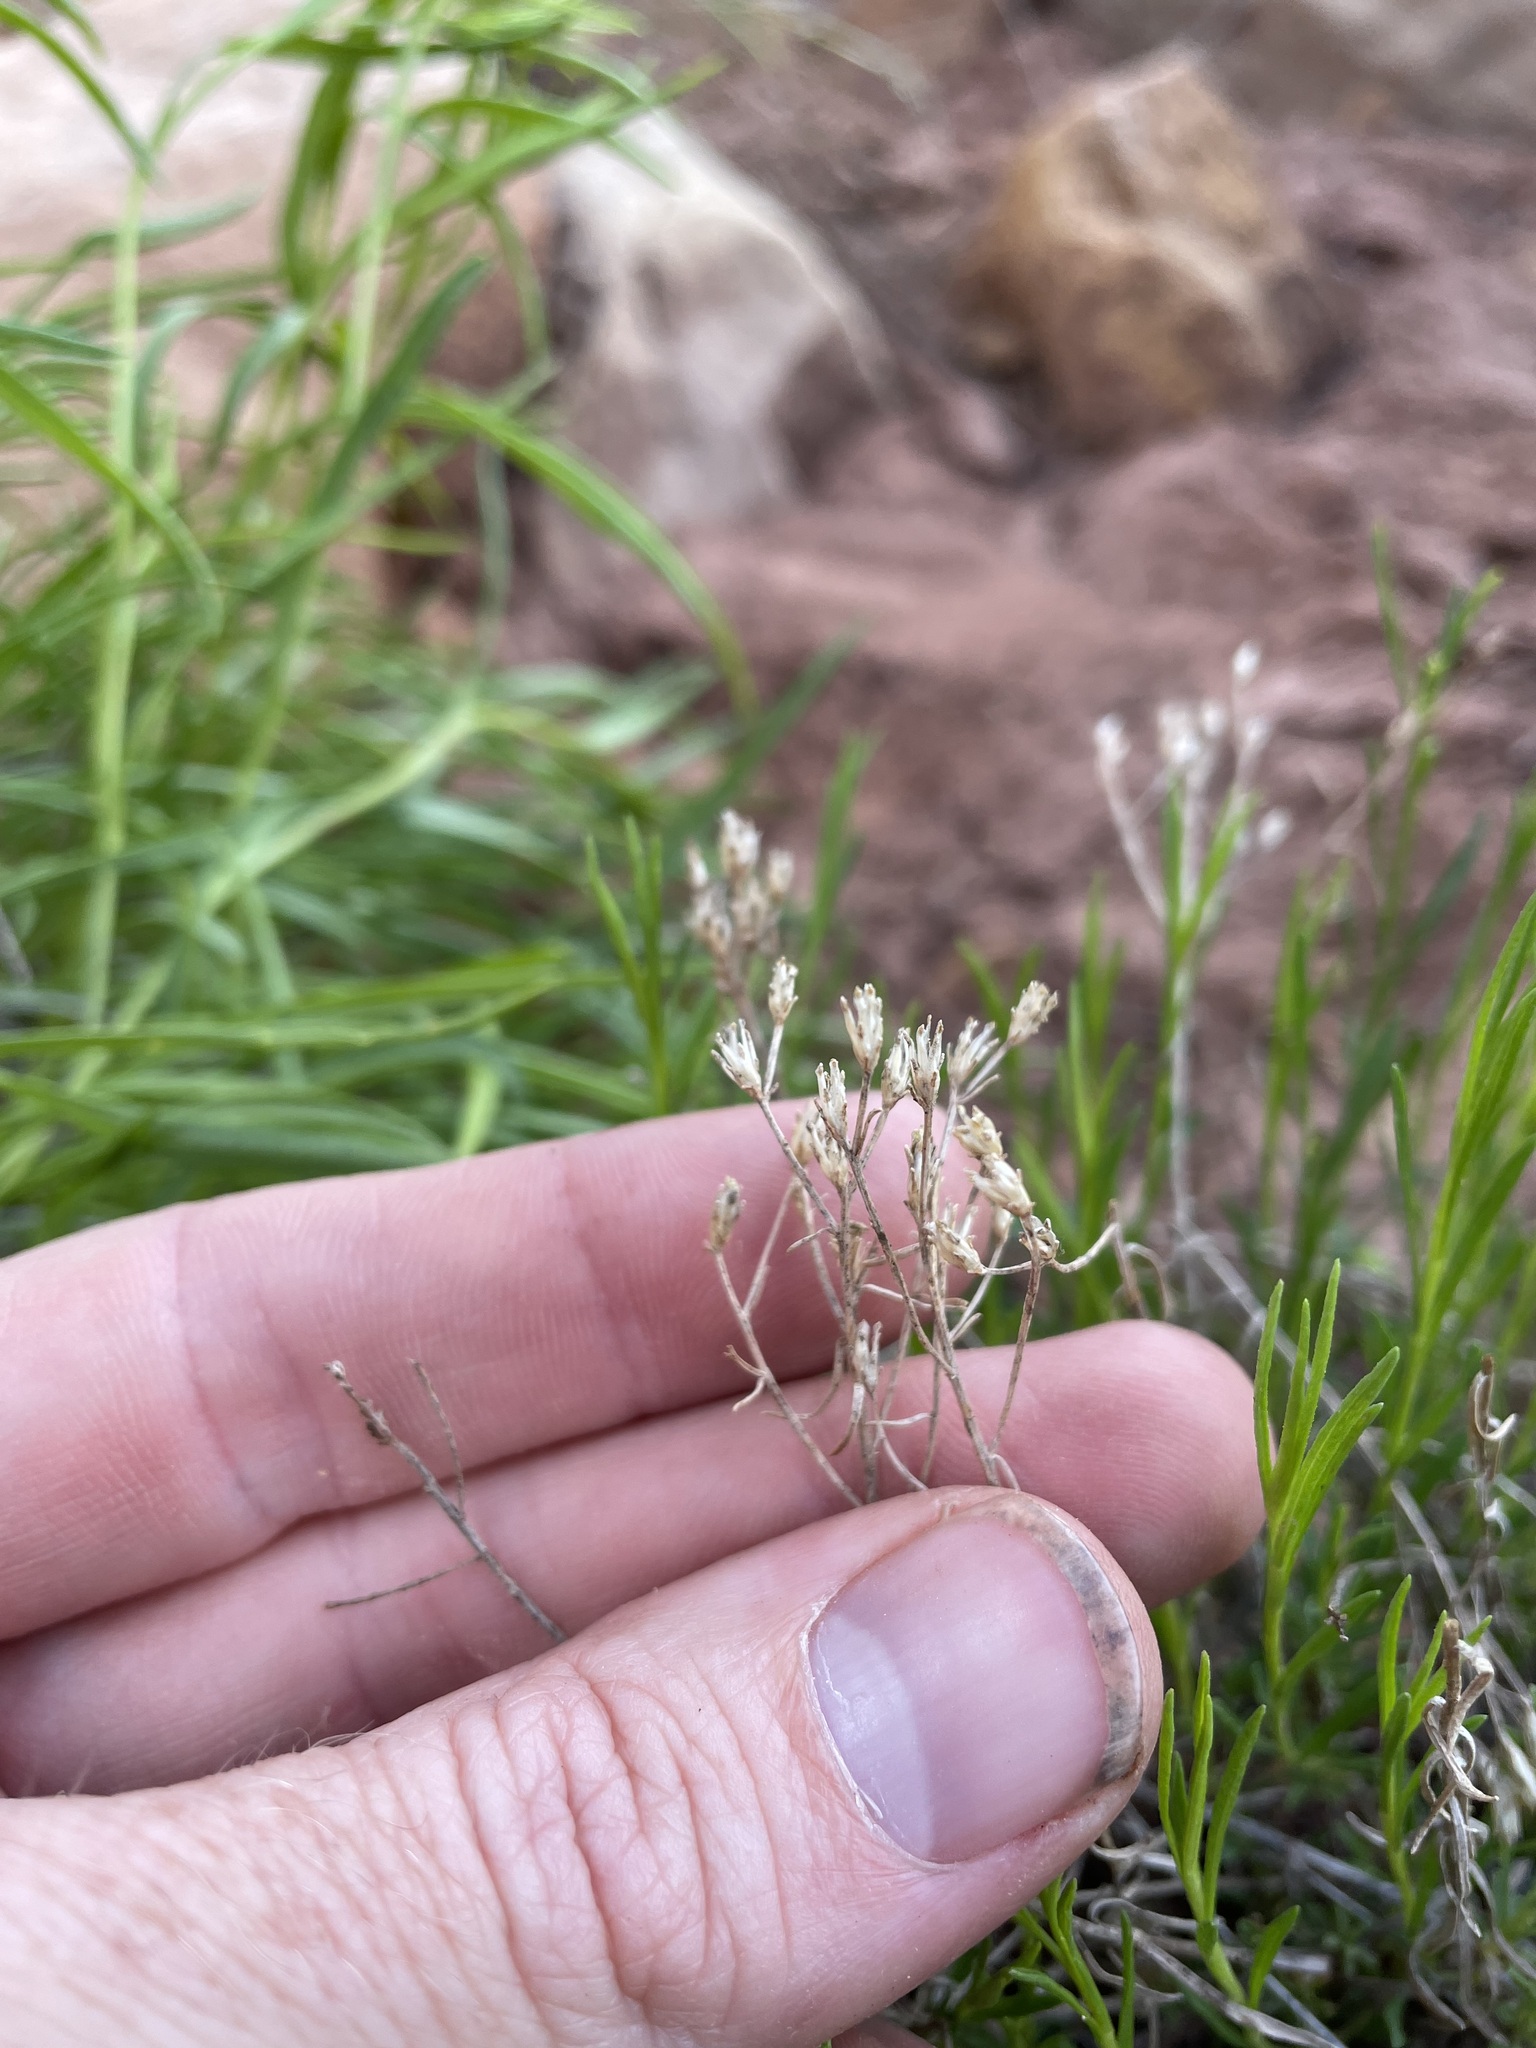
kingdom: Plantae
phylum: Tracheophyta
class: Magnoliopsida
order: Asterales
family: Asteraceae
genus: Gutierrezia
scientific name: Gutierrezia sarothrae
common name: Broom snakeweed
